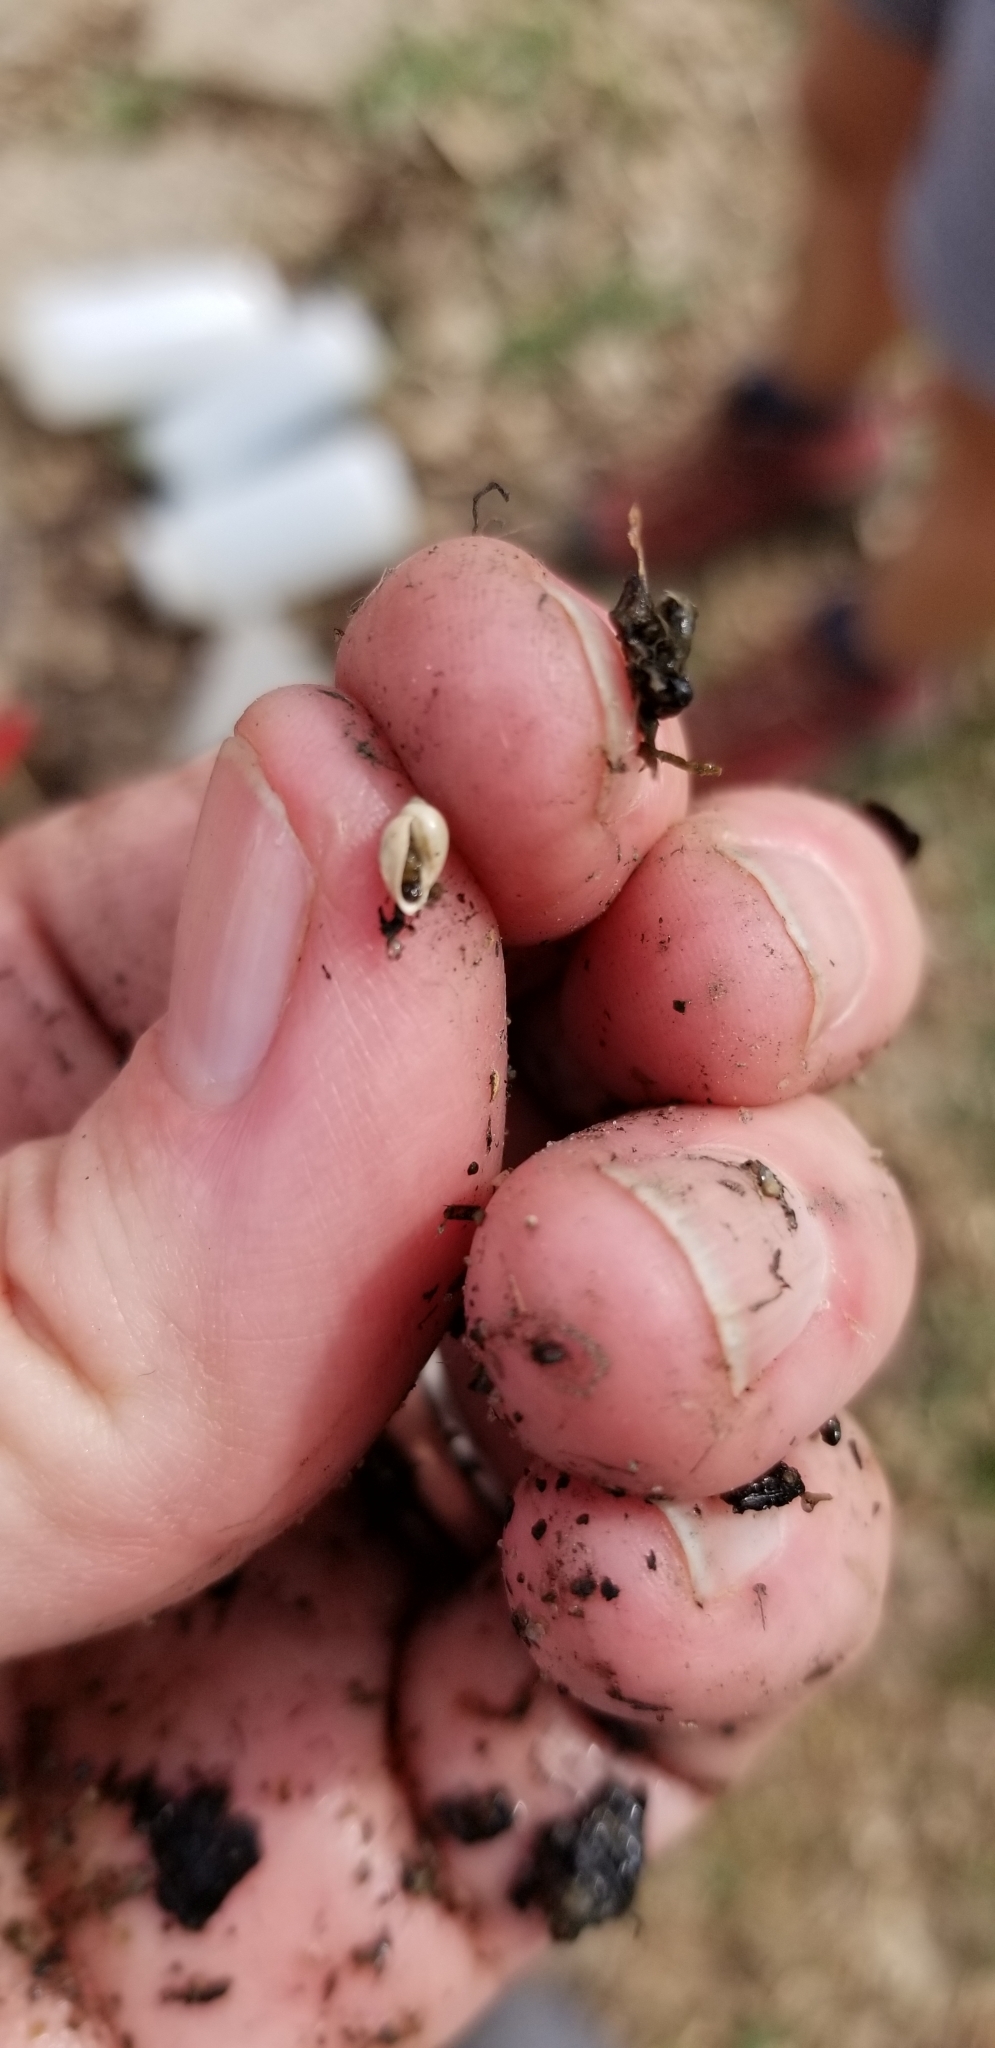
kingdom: Animalia
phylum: Mollusca
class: Gastropoda
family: Physidae
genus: Physella
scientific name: Physella
